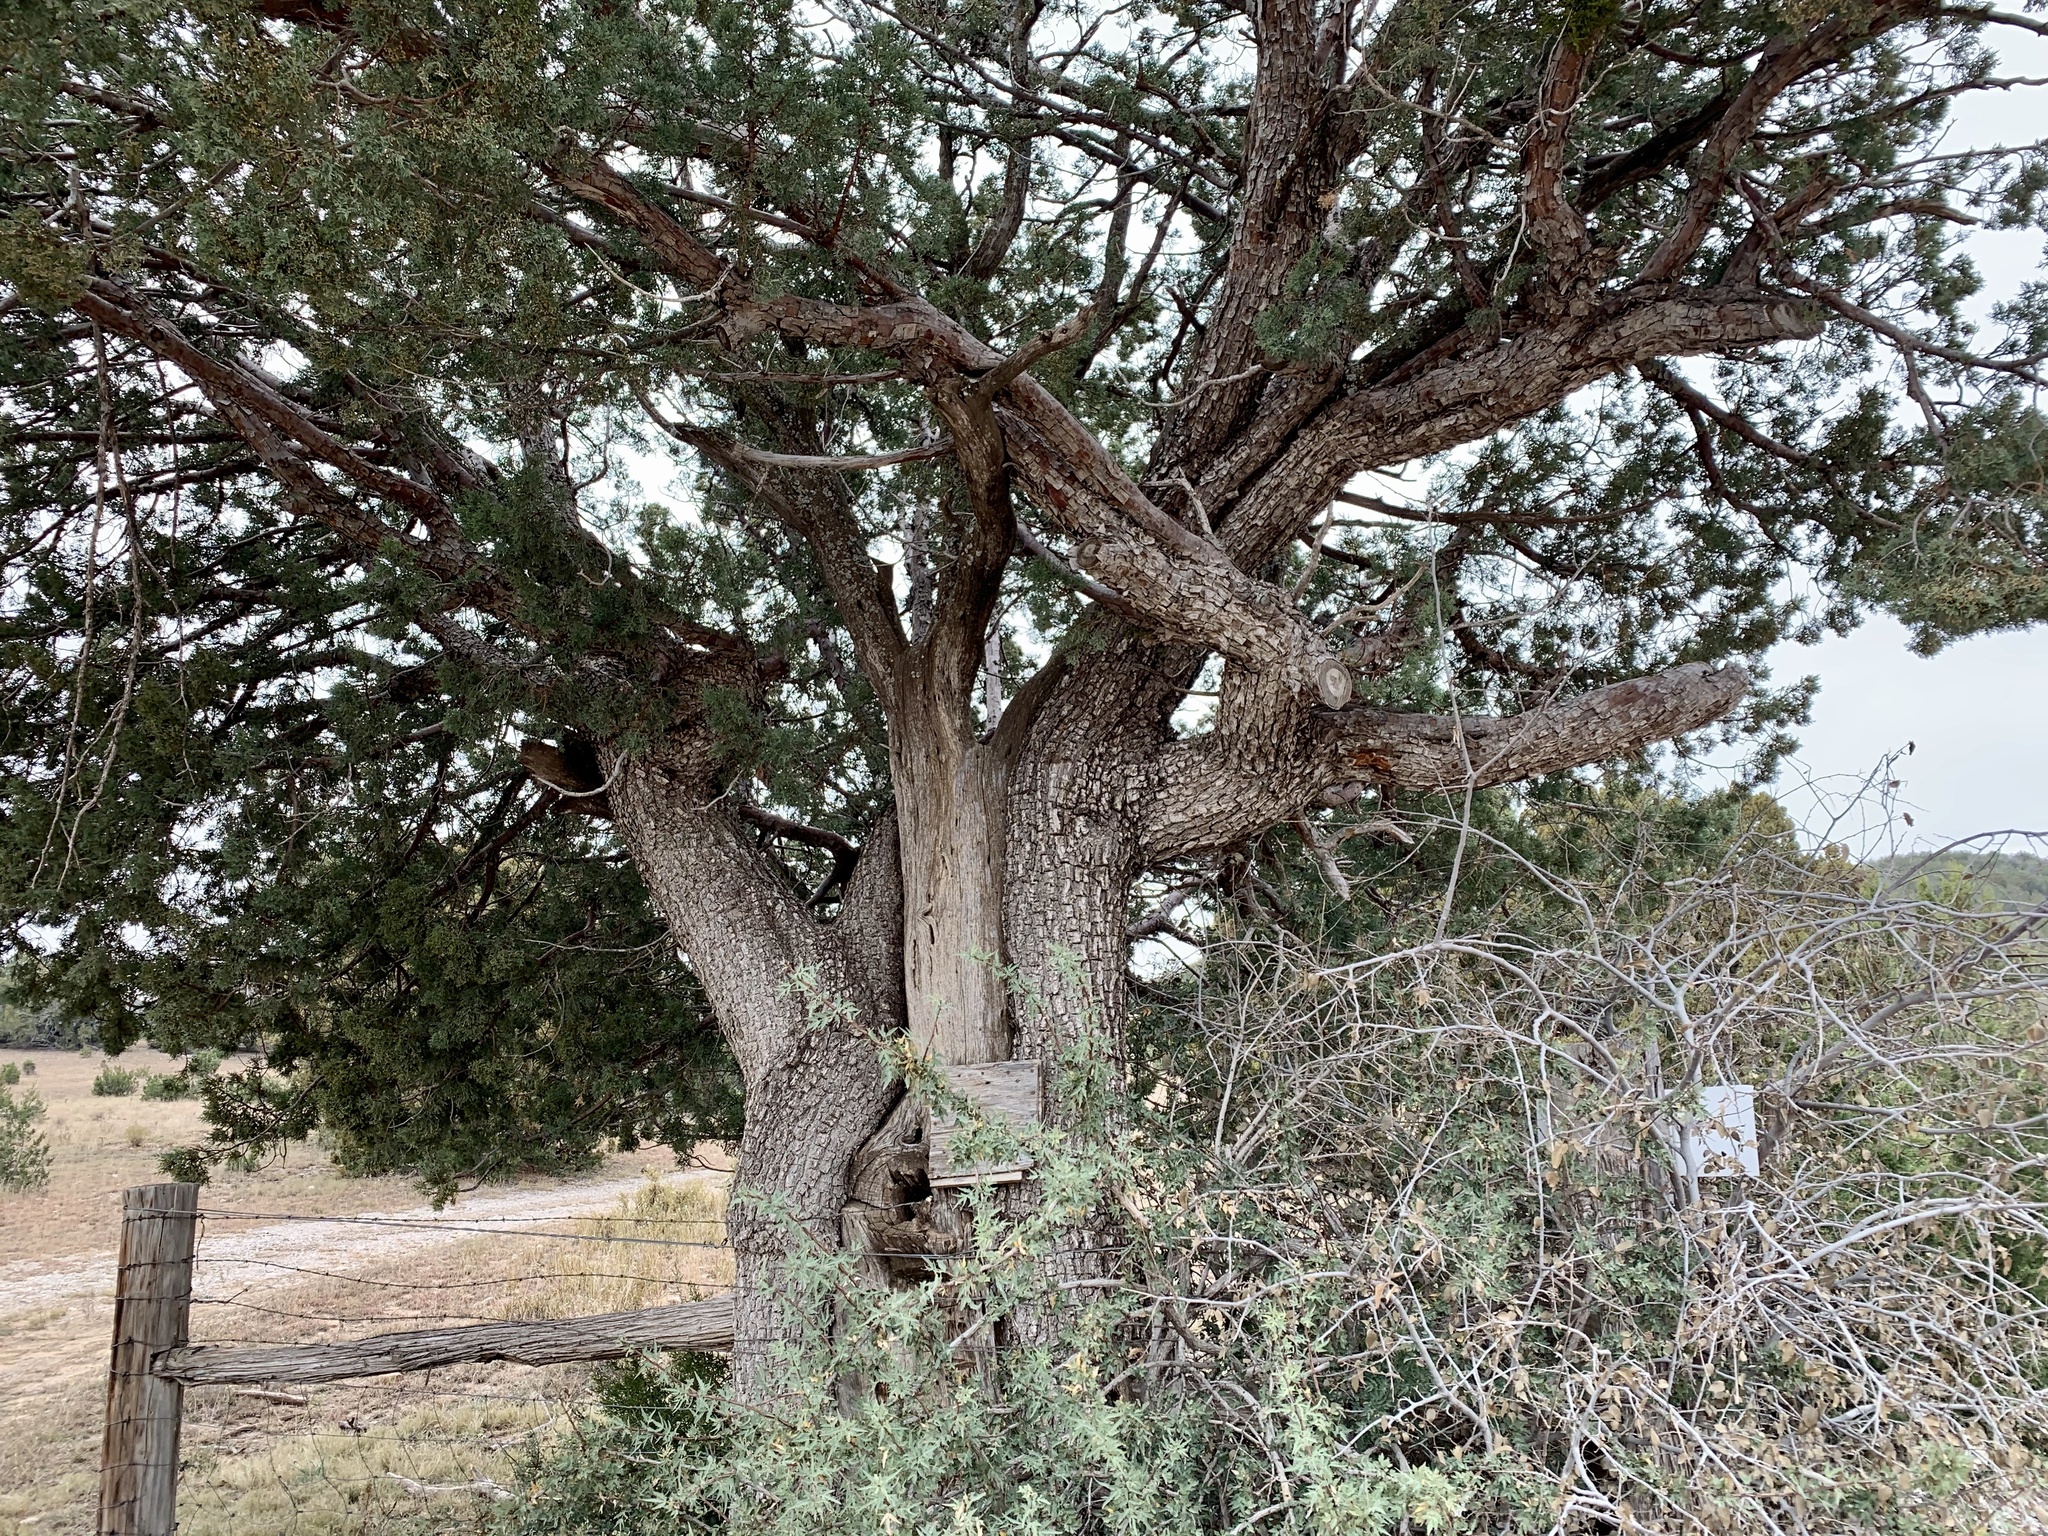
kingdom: Plantae
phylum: Tracheophyta
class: Pinopsida
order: Pinales
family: Cupressaceae
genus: Juniperus
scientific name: Juniperus deppeana
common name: Alligator juniper
